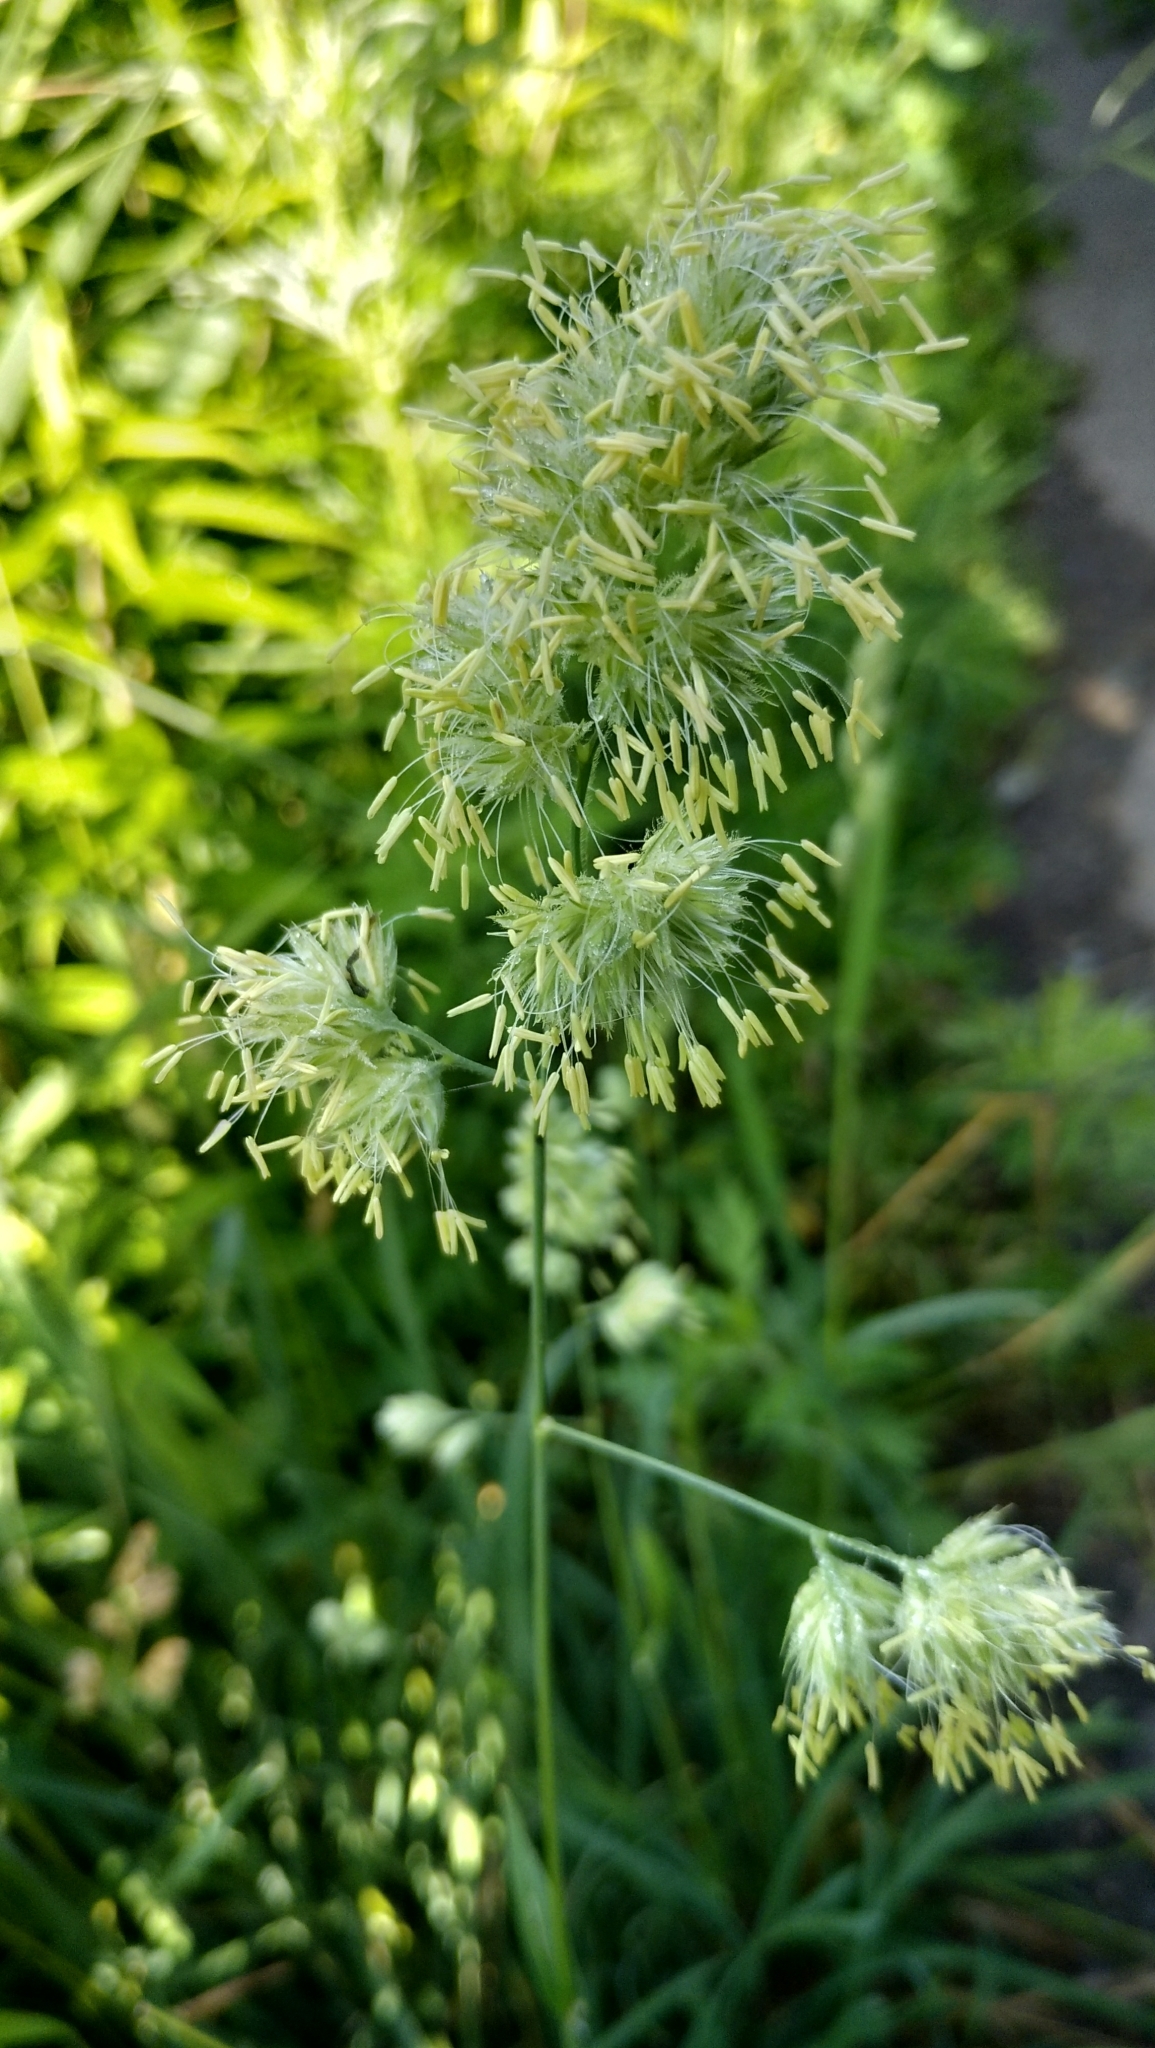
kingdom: Plantae
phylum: Tracheophyta
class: Liliopsida
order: Poales
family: Poaceae
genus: Dactylis
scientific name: Dactylis glomerata
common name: Orchardgrass
